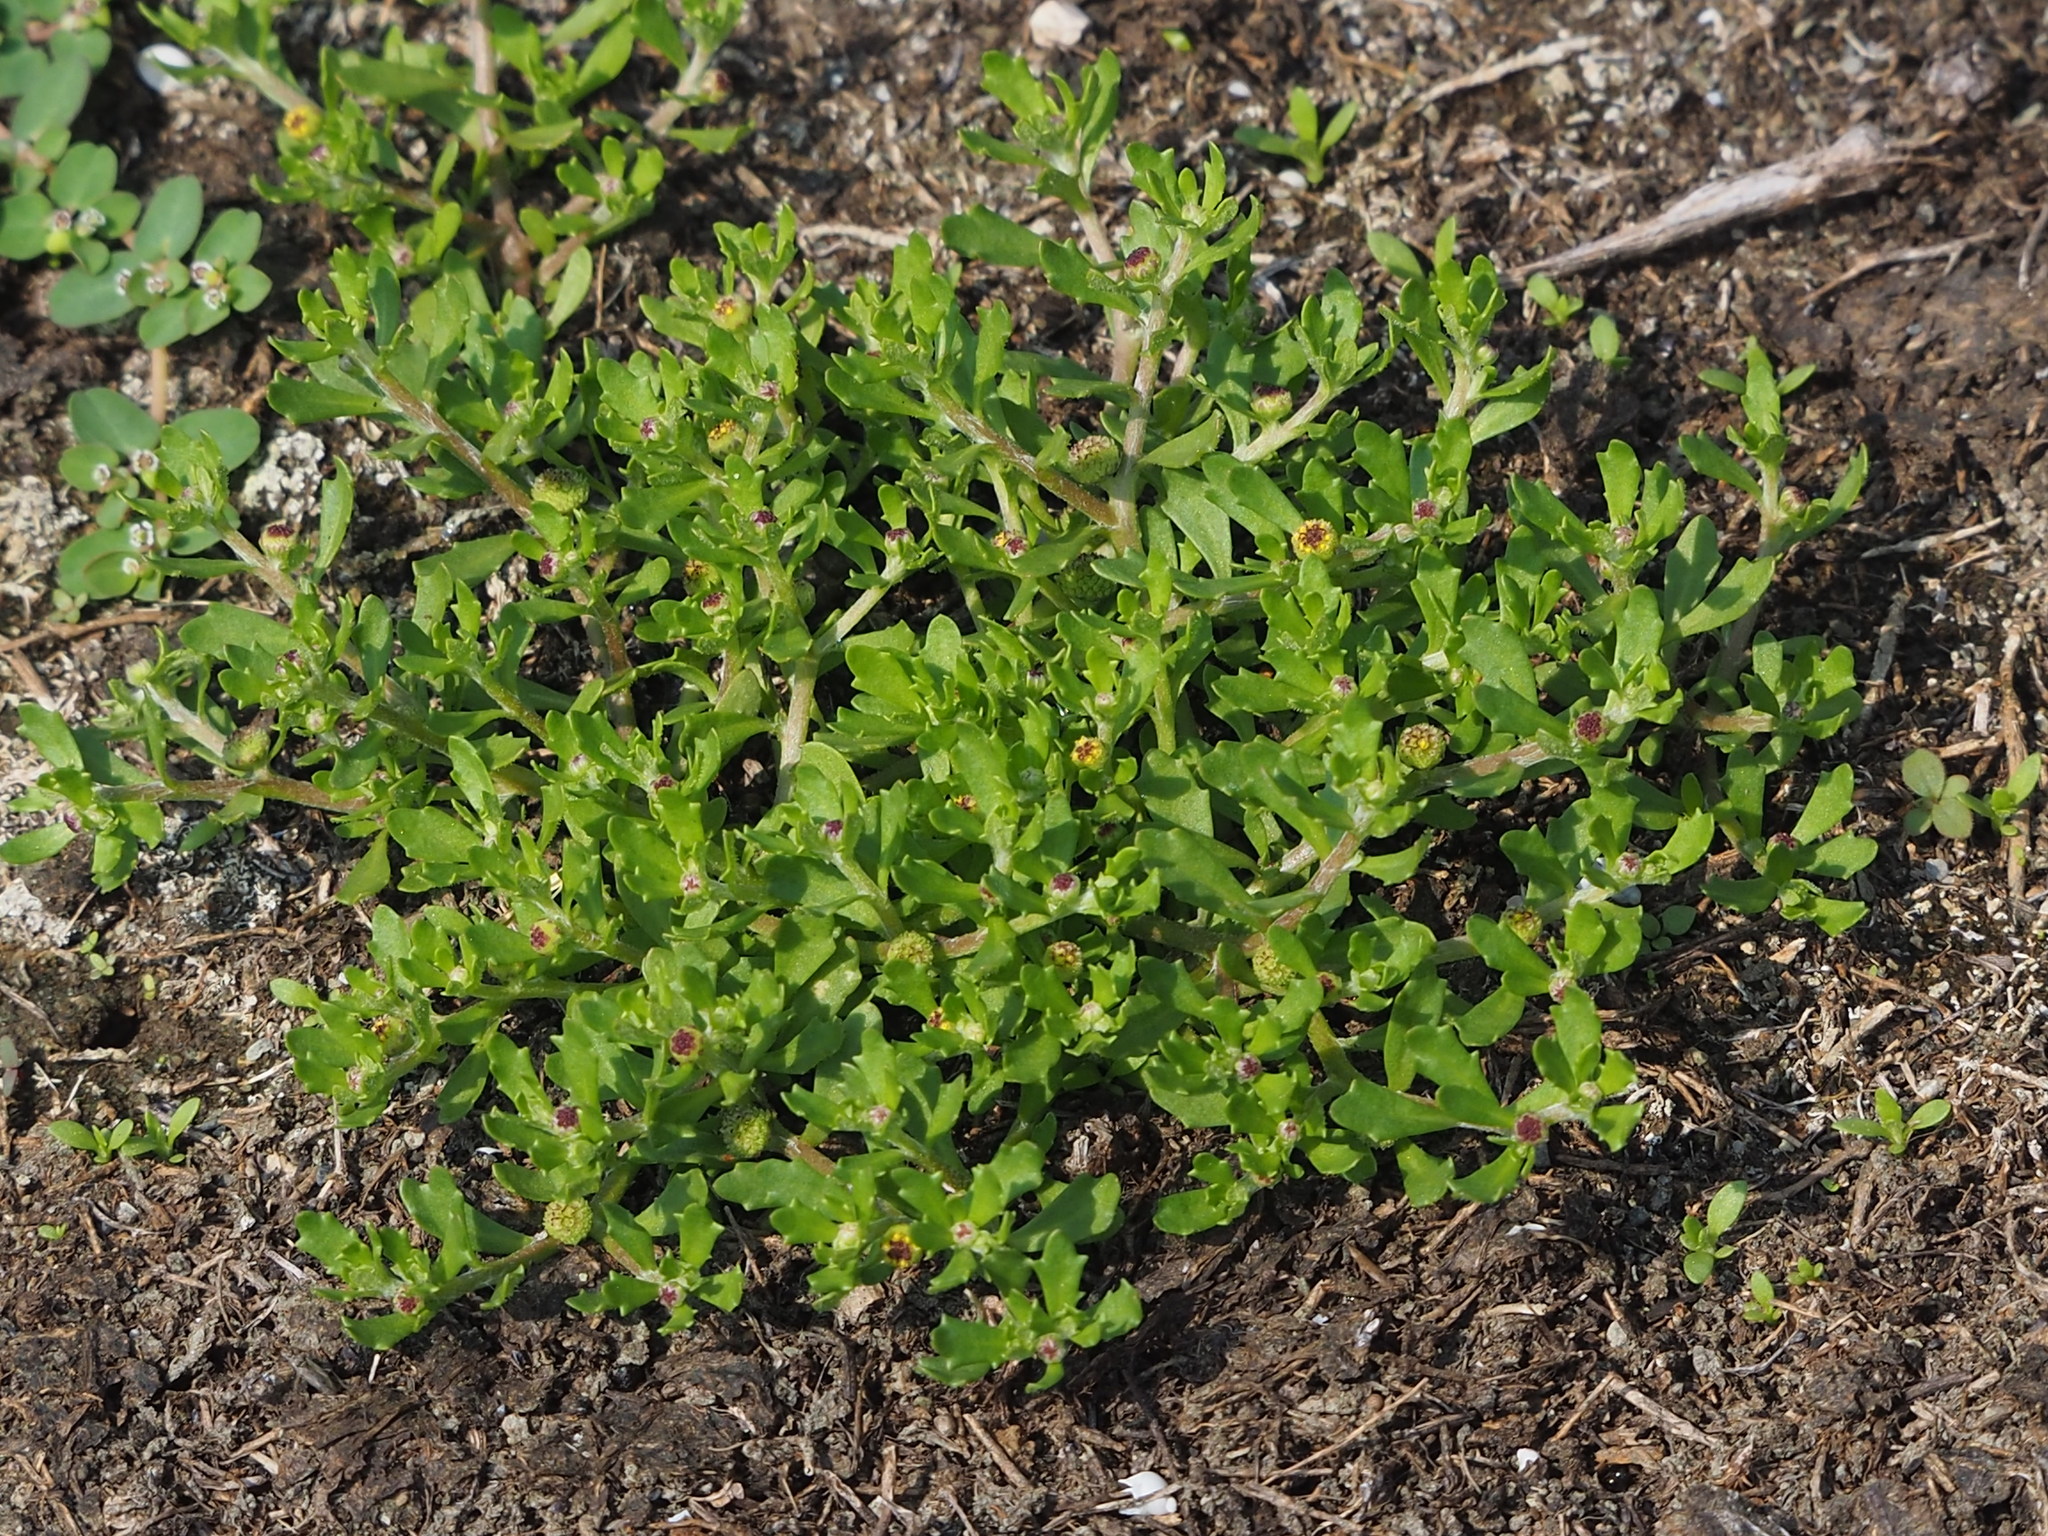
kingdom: Plantae
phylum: Tracheophyta
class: Magnoliopsida
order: Asterales
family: Asteraceae
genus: Centipeda
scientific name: Centipeda minima
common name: Spreading sneezeweed
